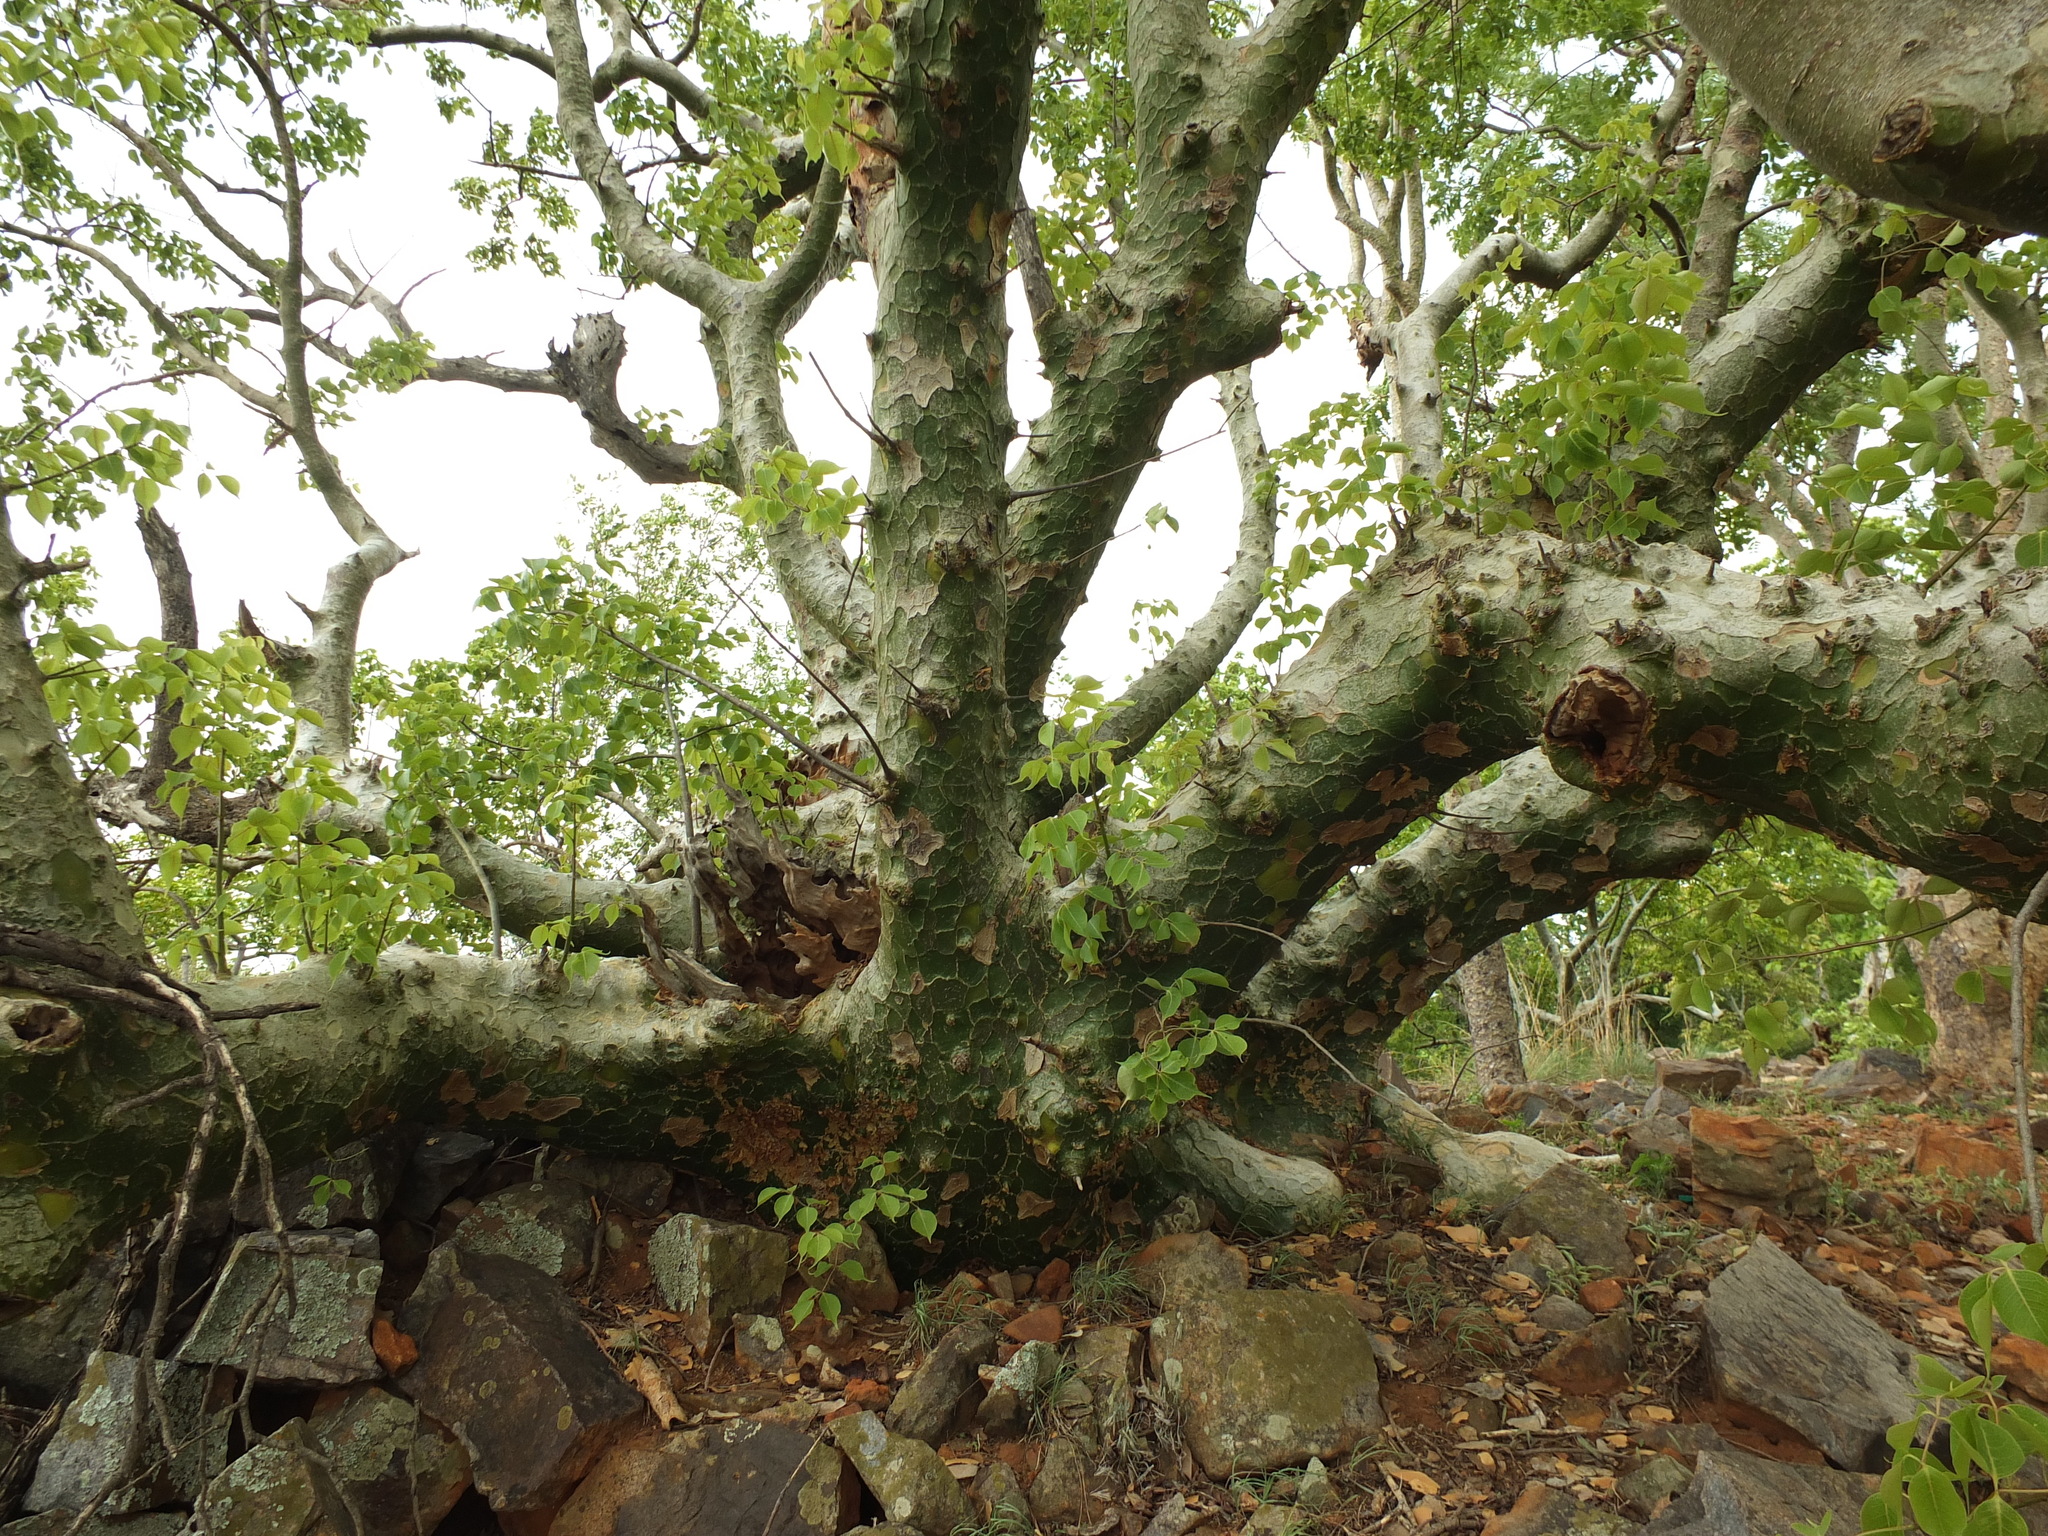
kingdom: Plantae
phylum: Tracheophyta
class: Magnoliopsida
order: Sapindales
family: Burseraceae
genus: Commiphora
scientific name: Commiphora caudata
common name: Hill-mango
